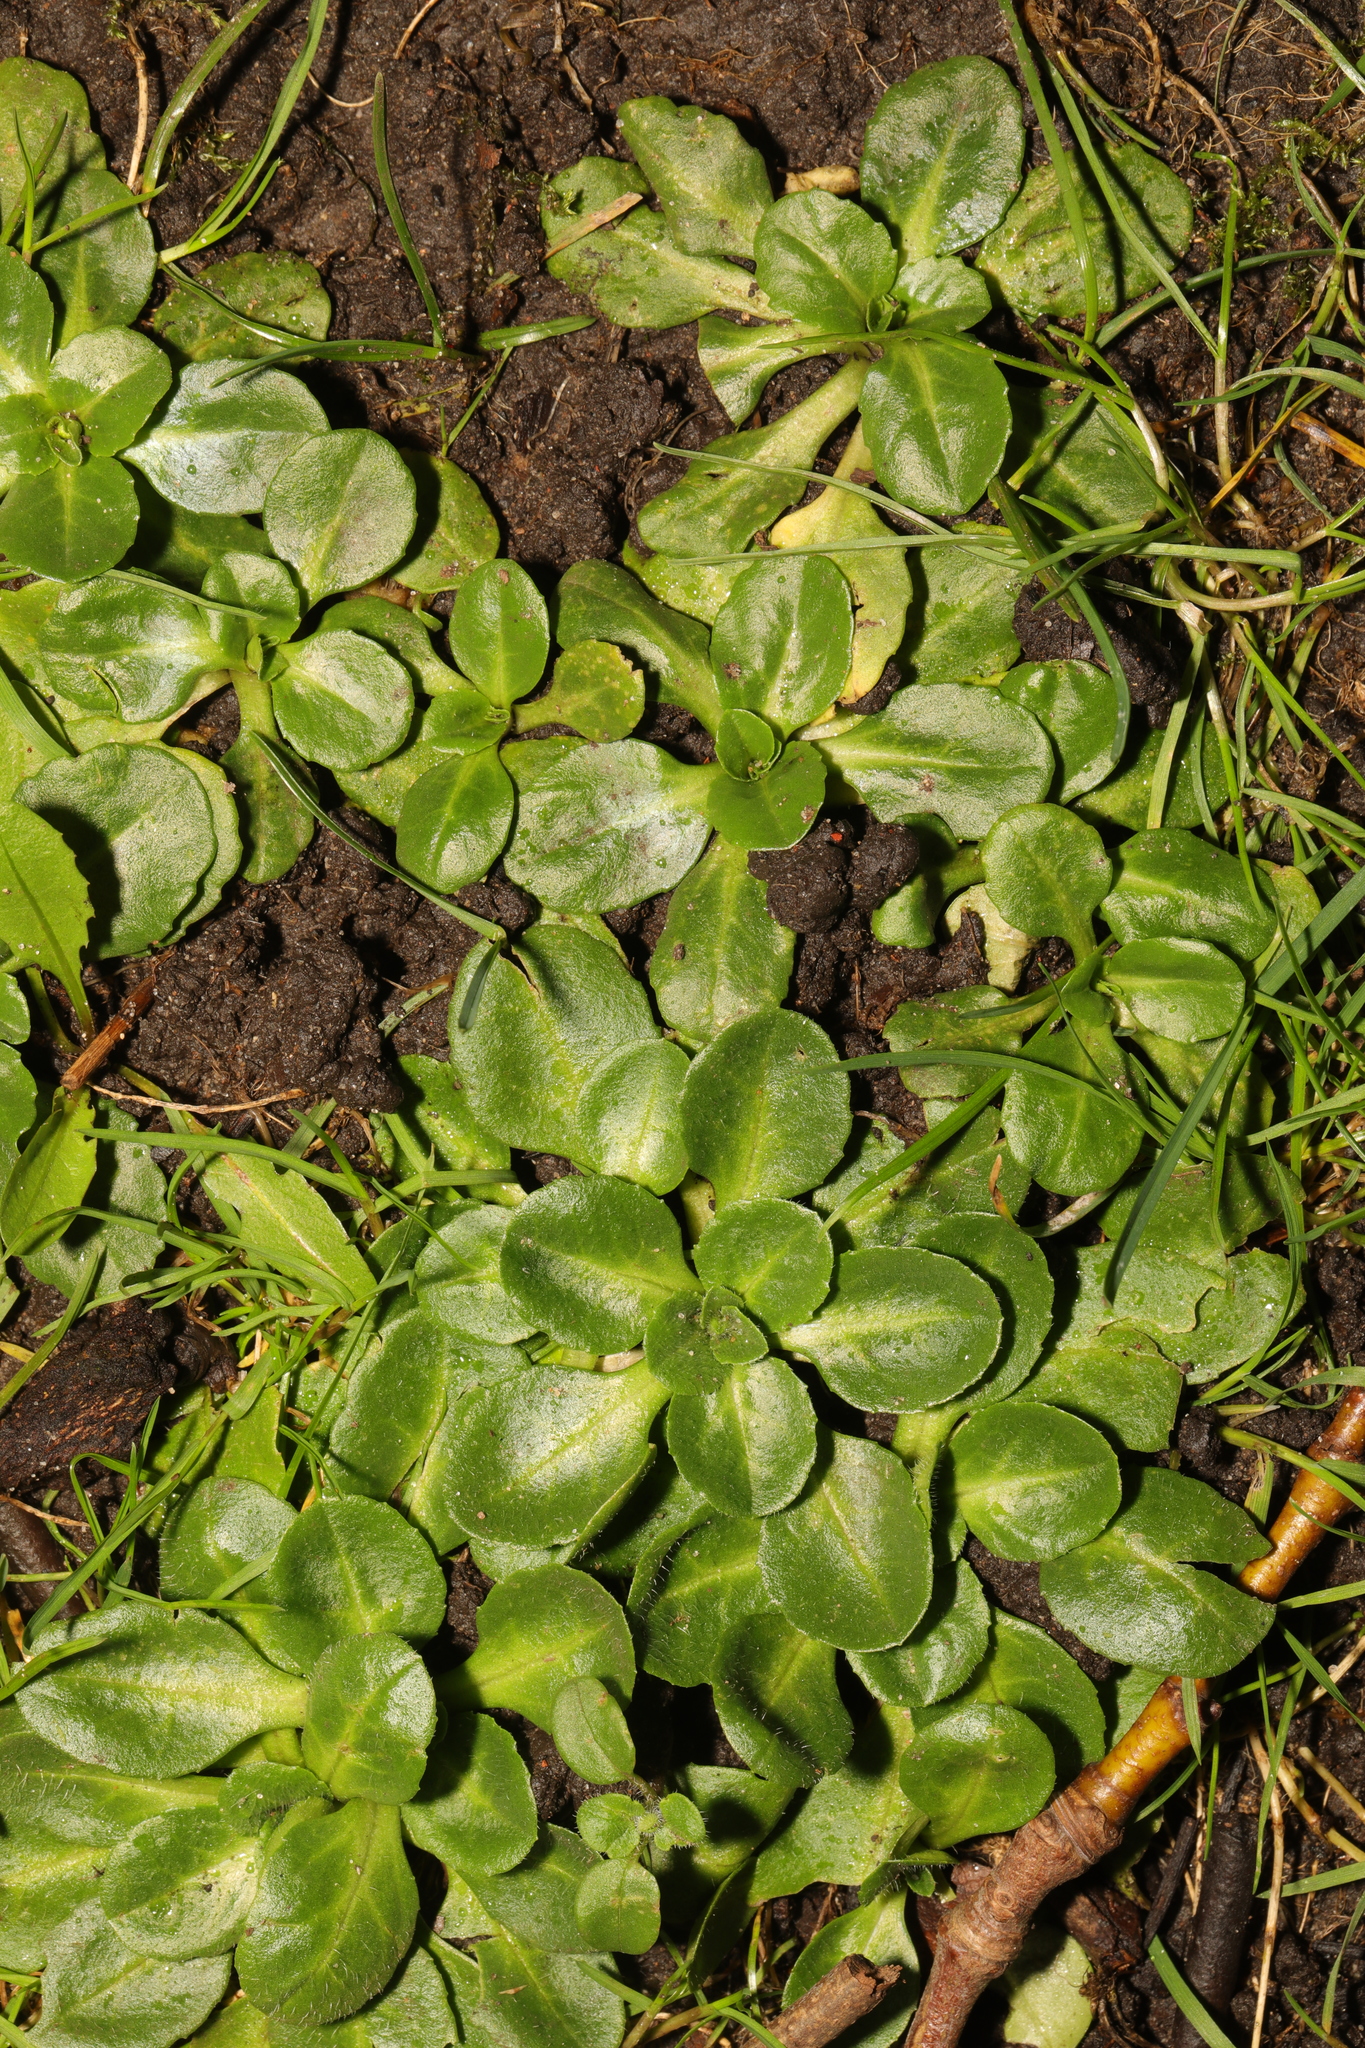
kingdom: Plantae
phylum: Tracheophyta
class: Magnoliopsida
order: Asterales
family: Asteraceae
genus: Bellis
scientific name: Bellis perennis
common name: Lawndaisy
